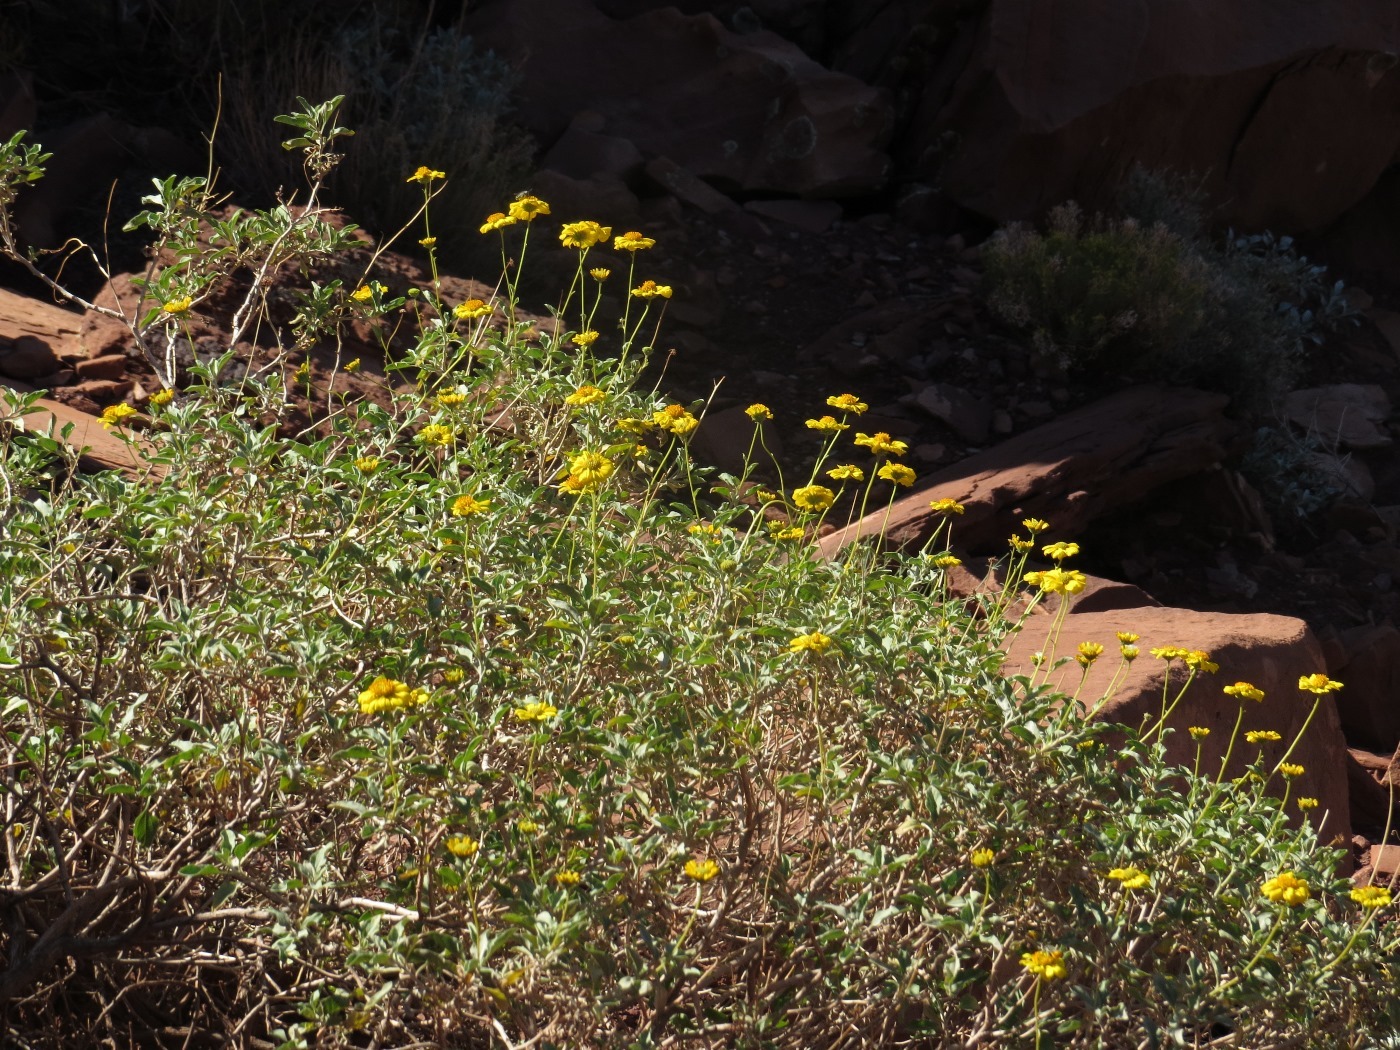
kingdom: Plantae
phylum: Tracheophyta
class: Magnoliopsida
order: Asterales
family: Asteraceae
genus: Bahiopsis
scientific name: Bahiopsis parishii
